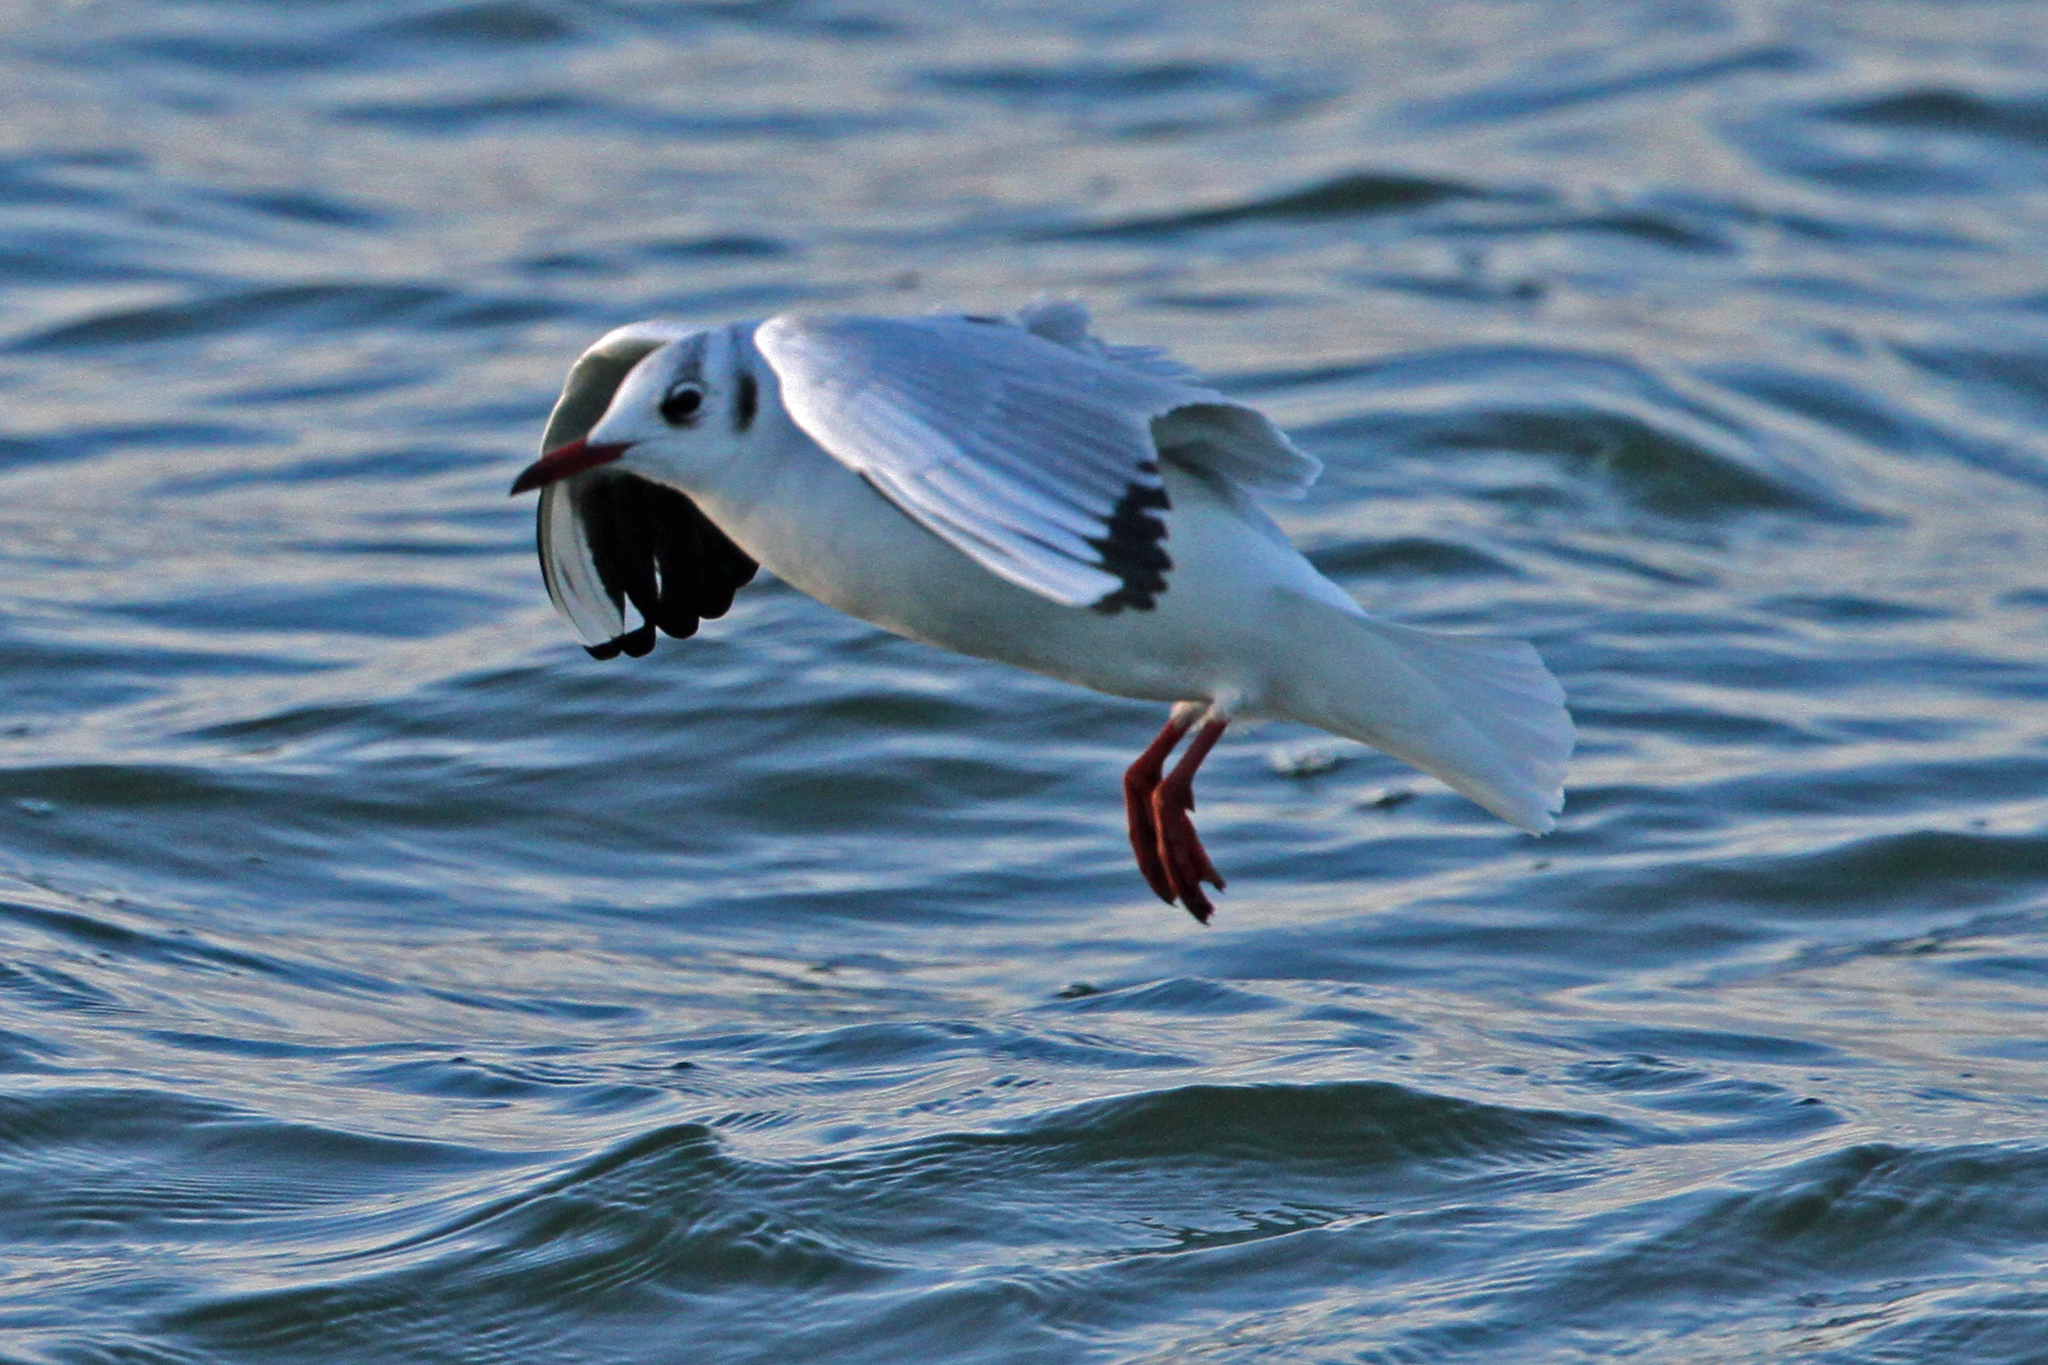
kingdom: Animalia
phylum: Chordata
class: Aves
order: Charadriiformes
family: Laridae
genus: Chroicocephalus
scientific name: Chroicocephalus ridibundus
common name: Black-headed gull
